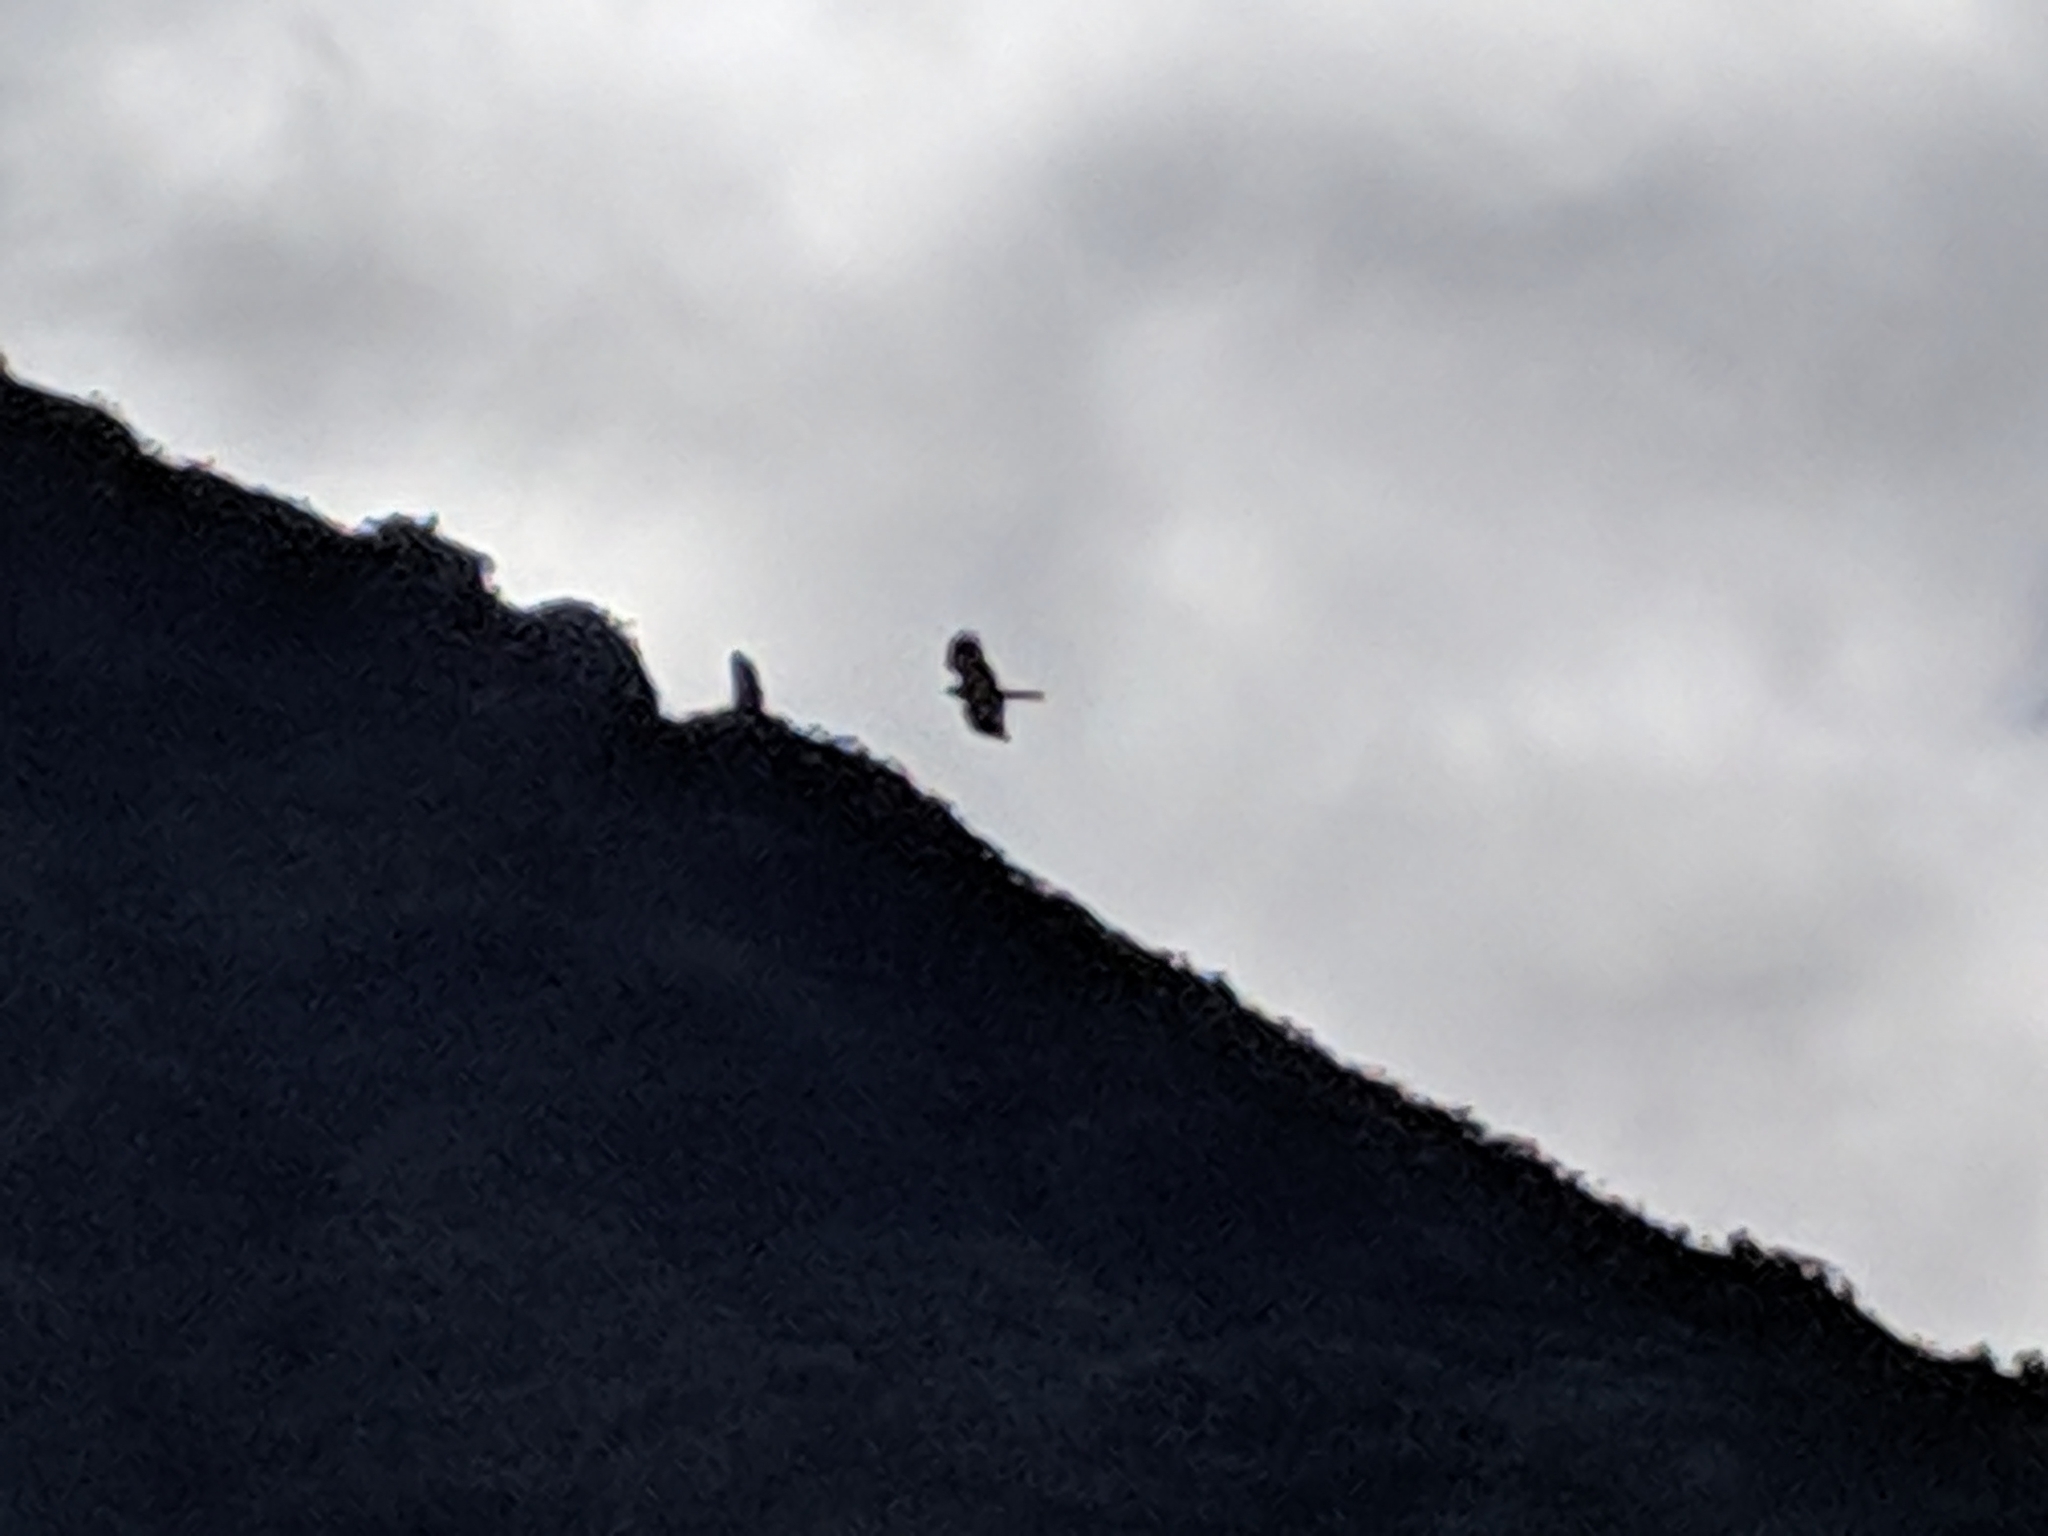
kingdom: Animalia
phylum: Chordata
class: Aves
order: Accipitriformes
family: Accipitridae
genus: Circus
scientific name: Circus maillardi
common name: Reunion harrier
